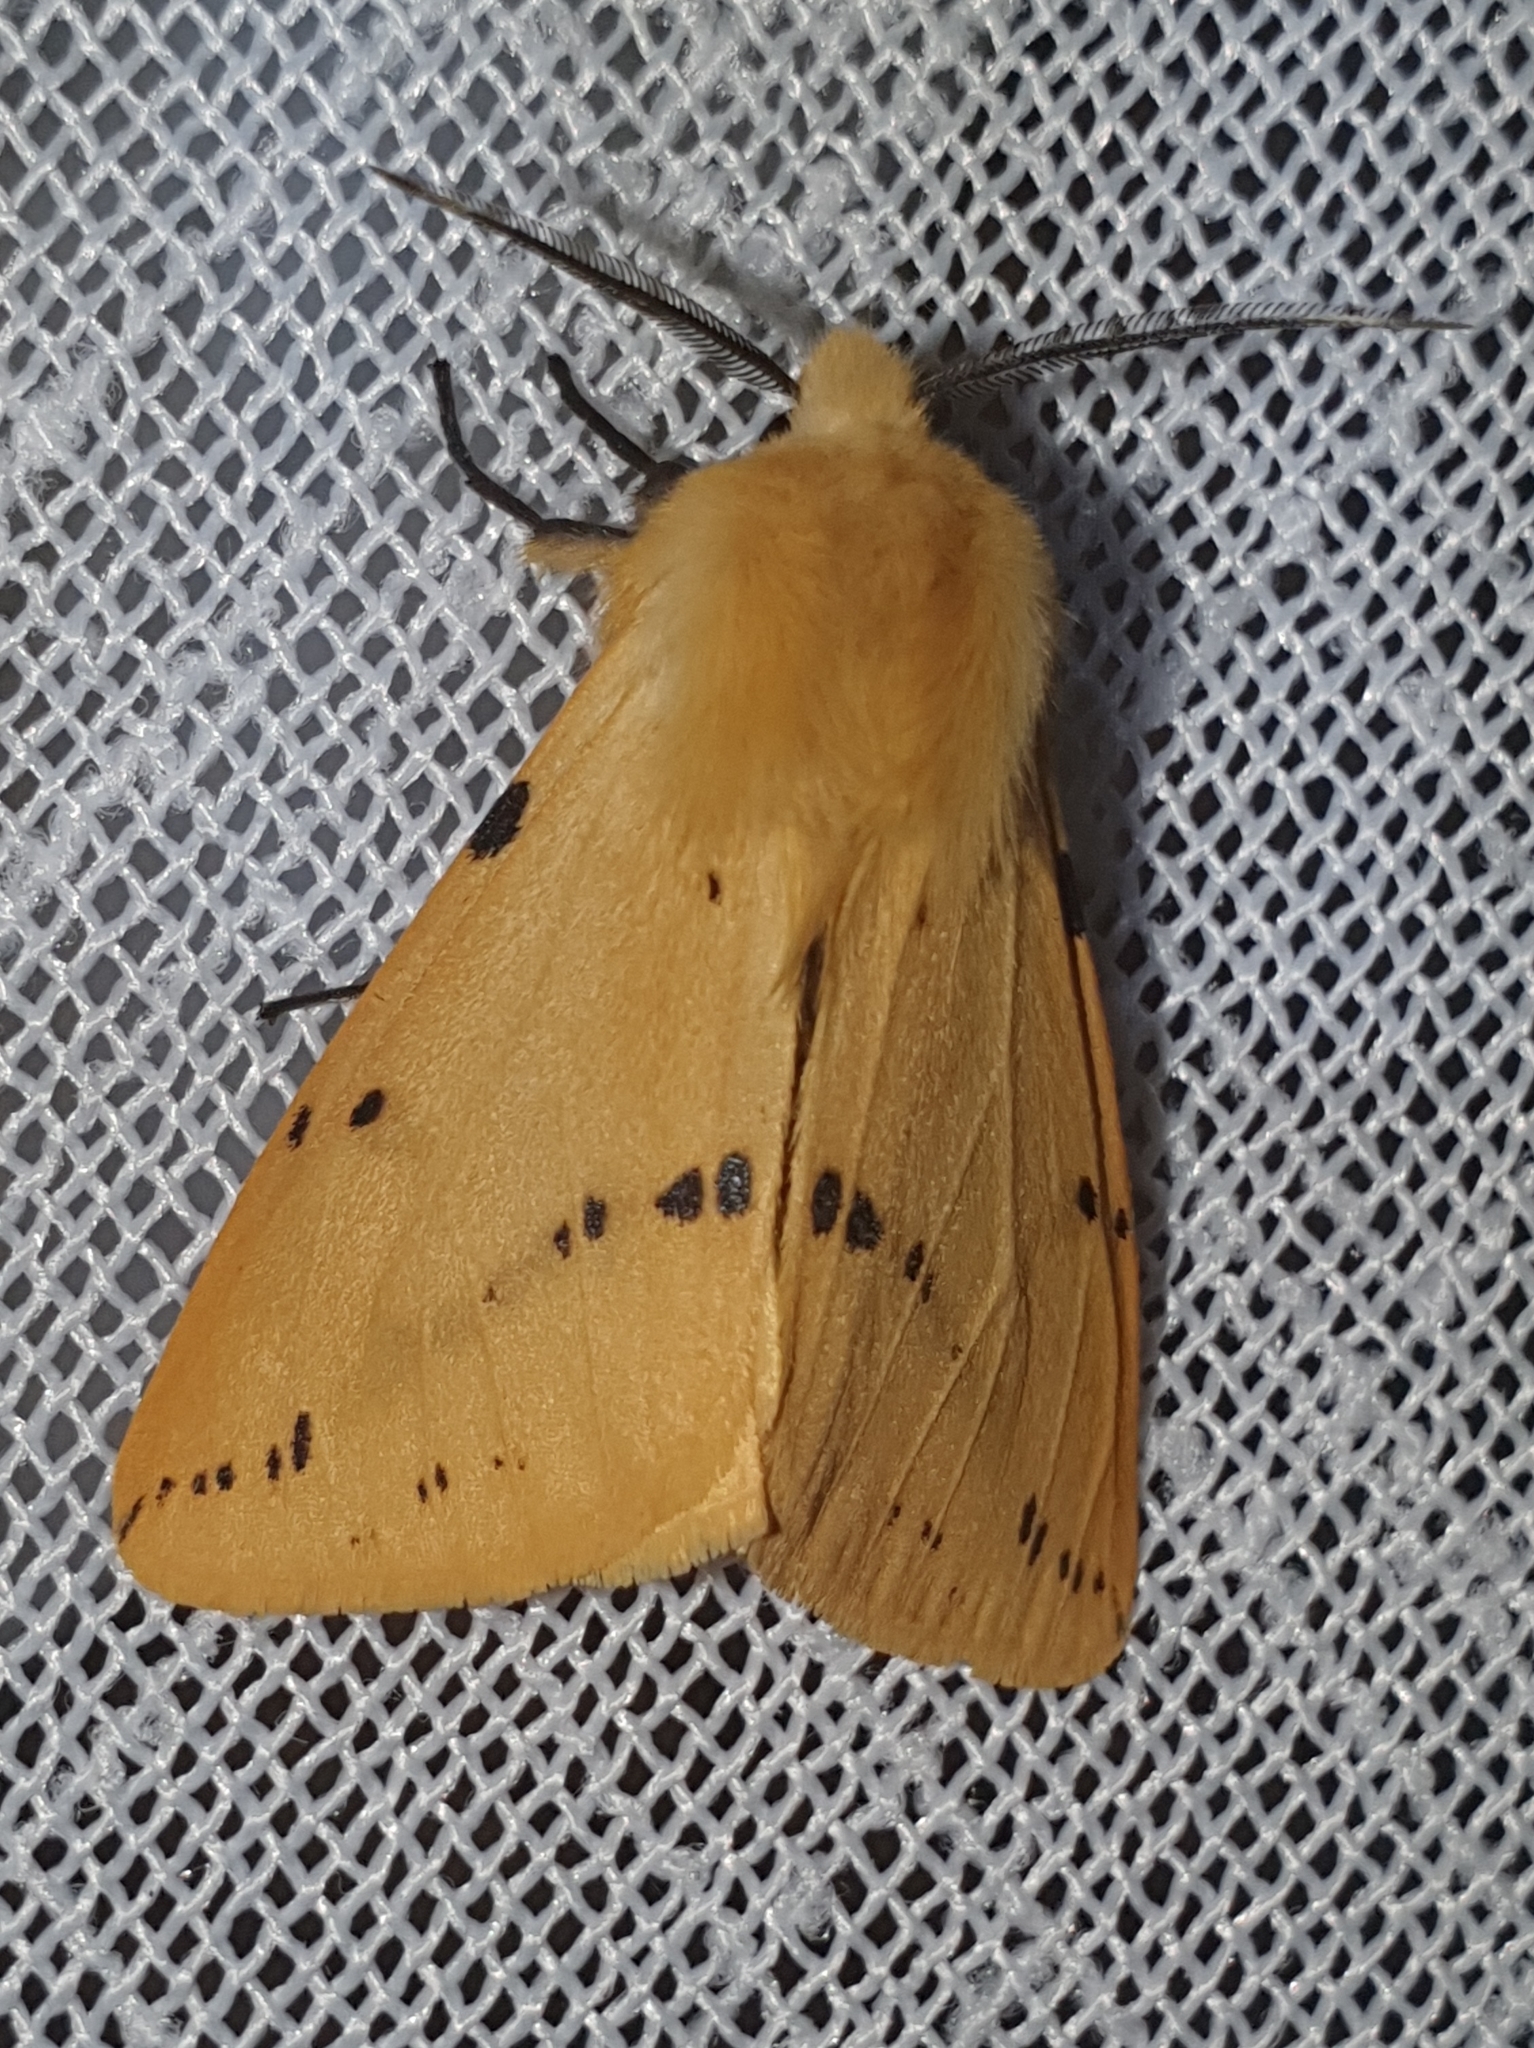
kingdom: Animalia
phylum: Arthropoda
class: Insecta
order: Lepidoptera
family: Erebidae
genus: Spilarctia
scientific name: Spilarctia lutea
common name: Buff ermine
